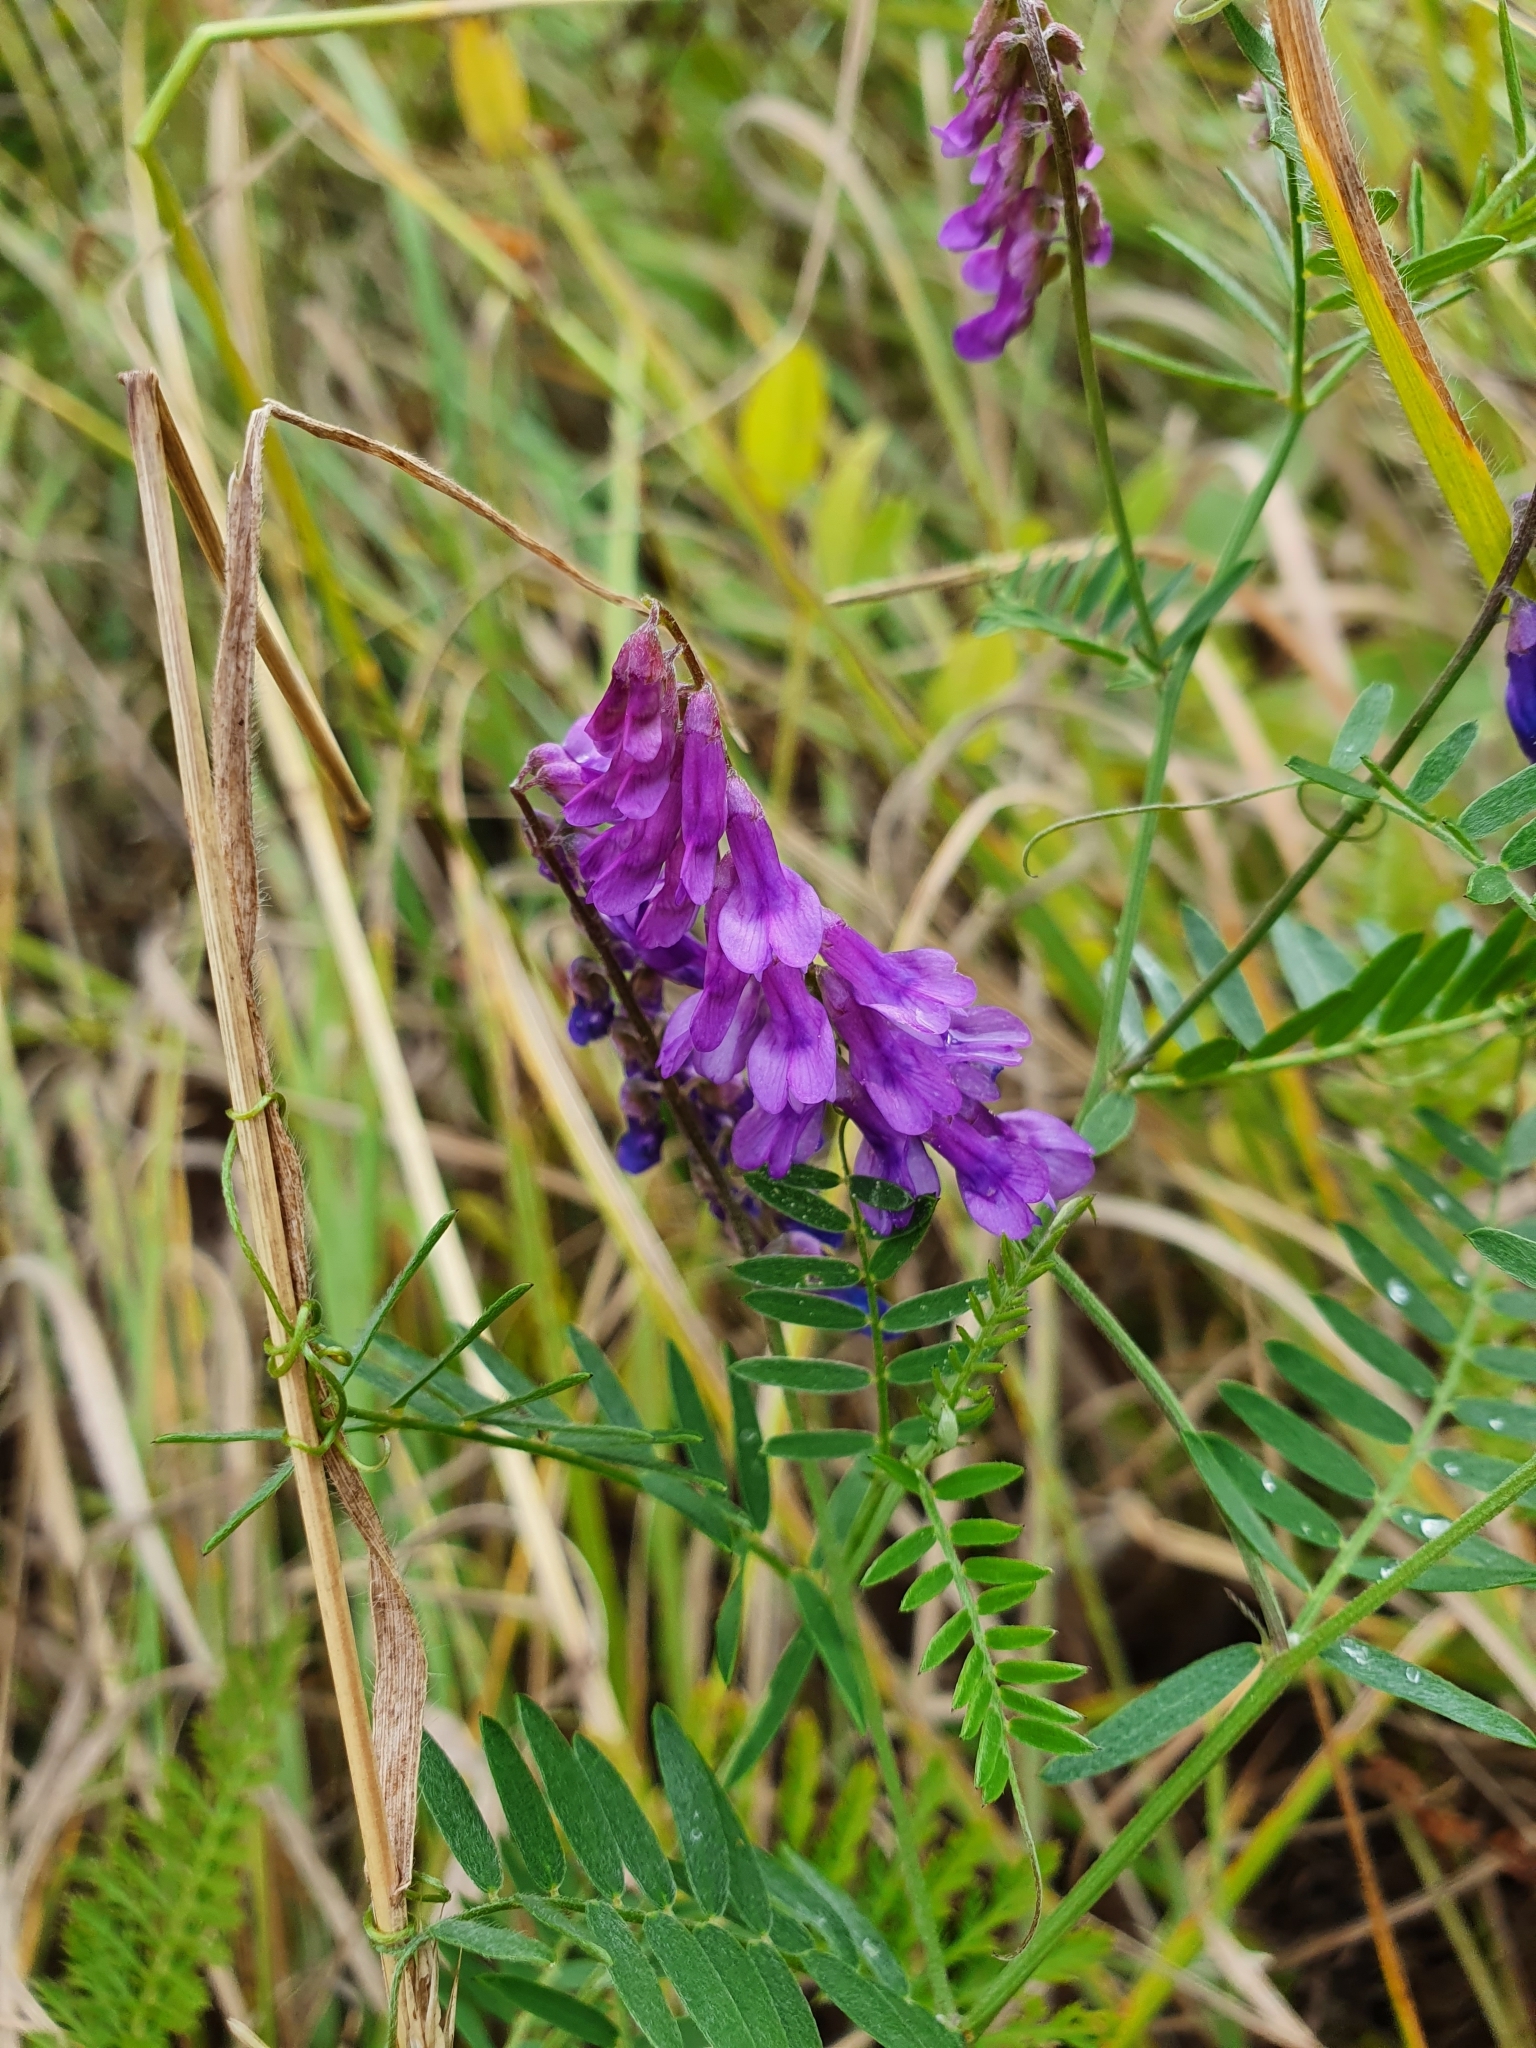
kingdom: Plantae
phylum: Tracheophyta
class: Magnoliopsida
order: Fabales
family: Fabaceae
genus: Vicia
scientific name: Vicia cracca
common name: Bird vetch
